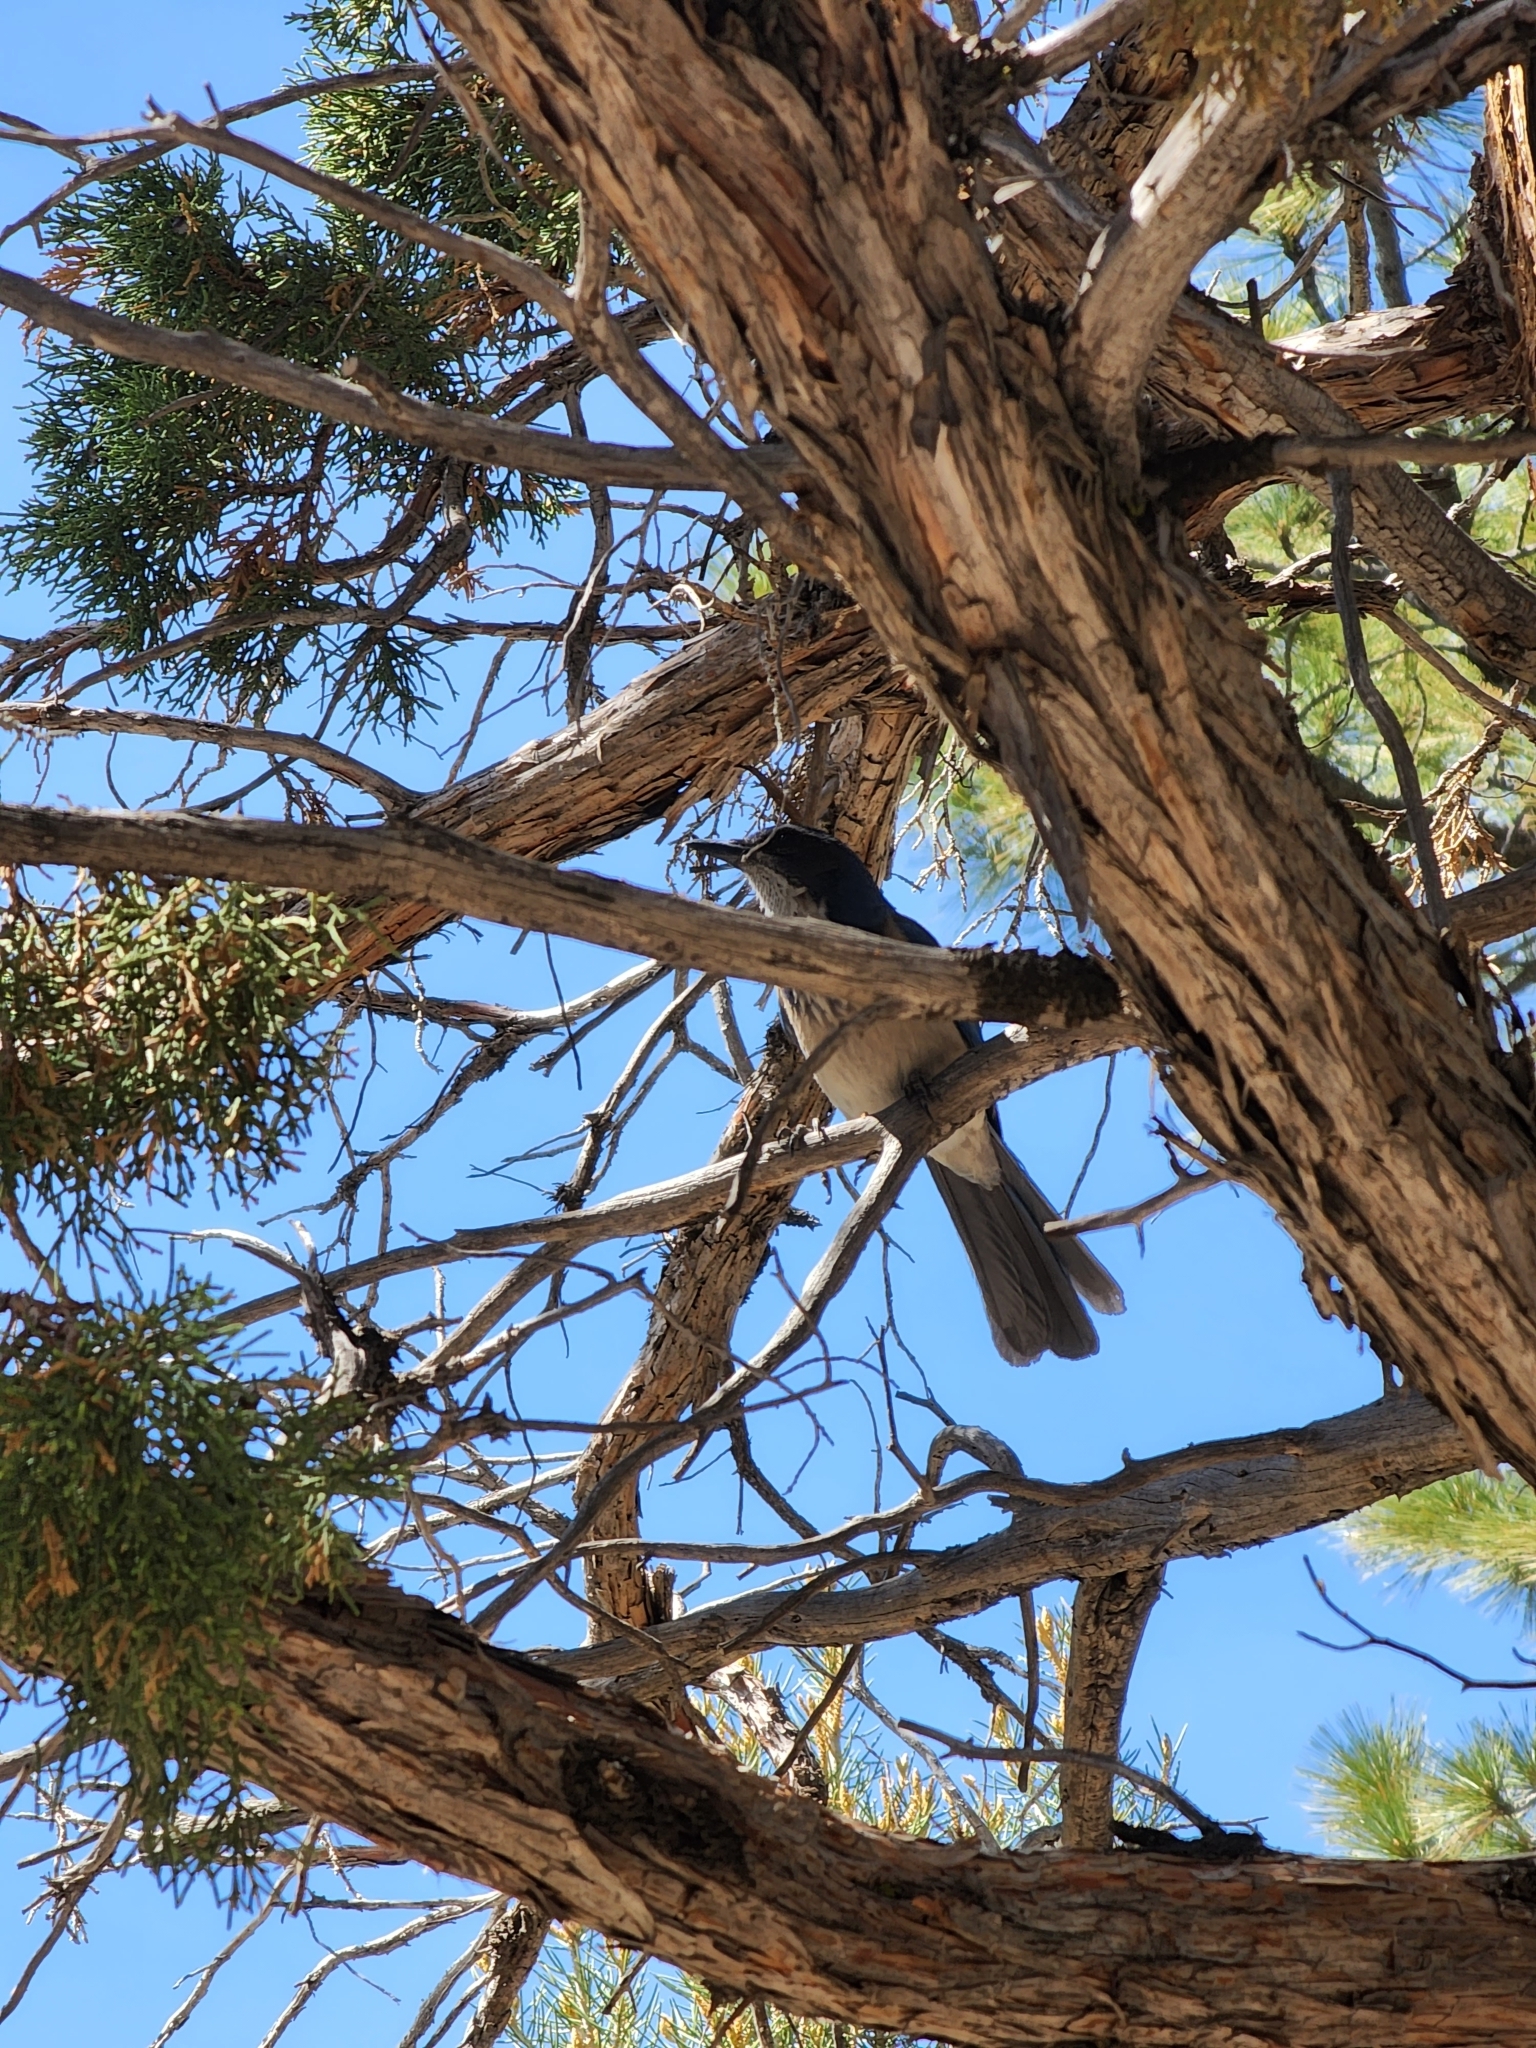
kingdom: Animalia
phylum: Chordata
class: Aves
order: Passeriformes
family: Corvidae
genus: Aphelocoma
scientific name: Aphelocoma californica
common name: California scrub-jay
